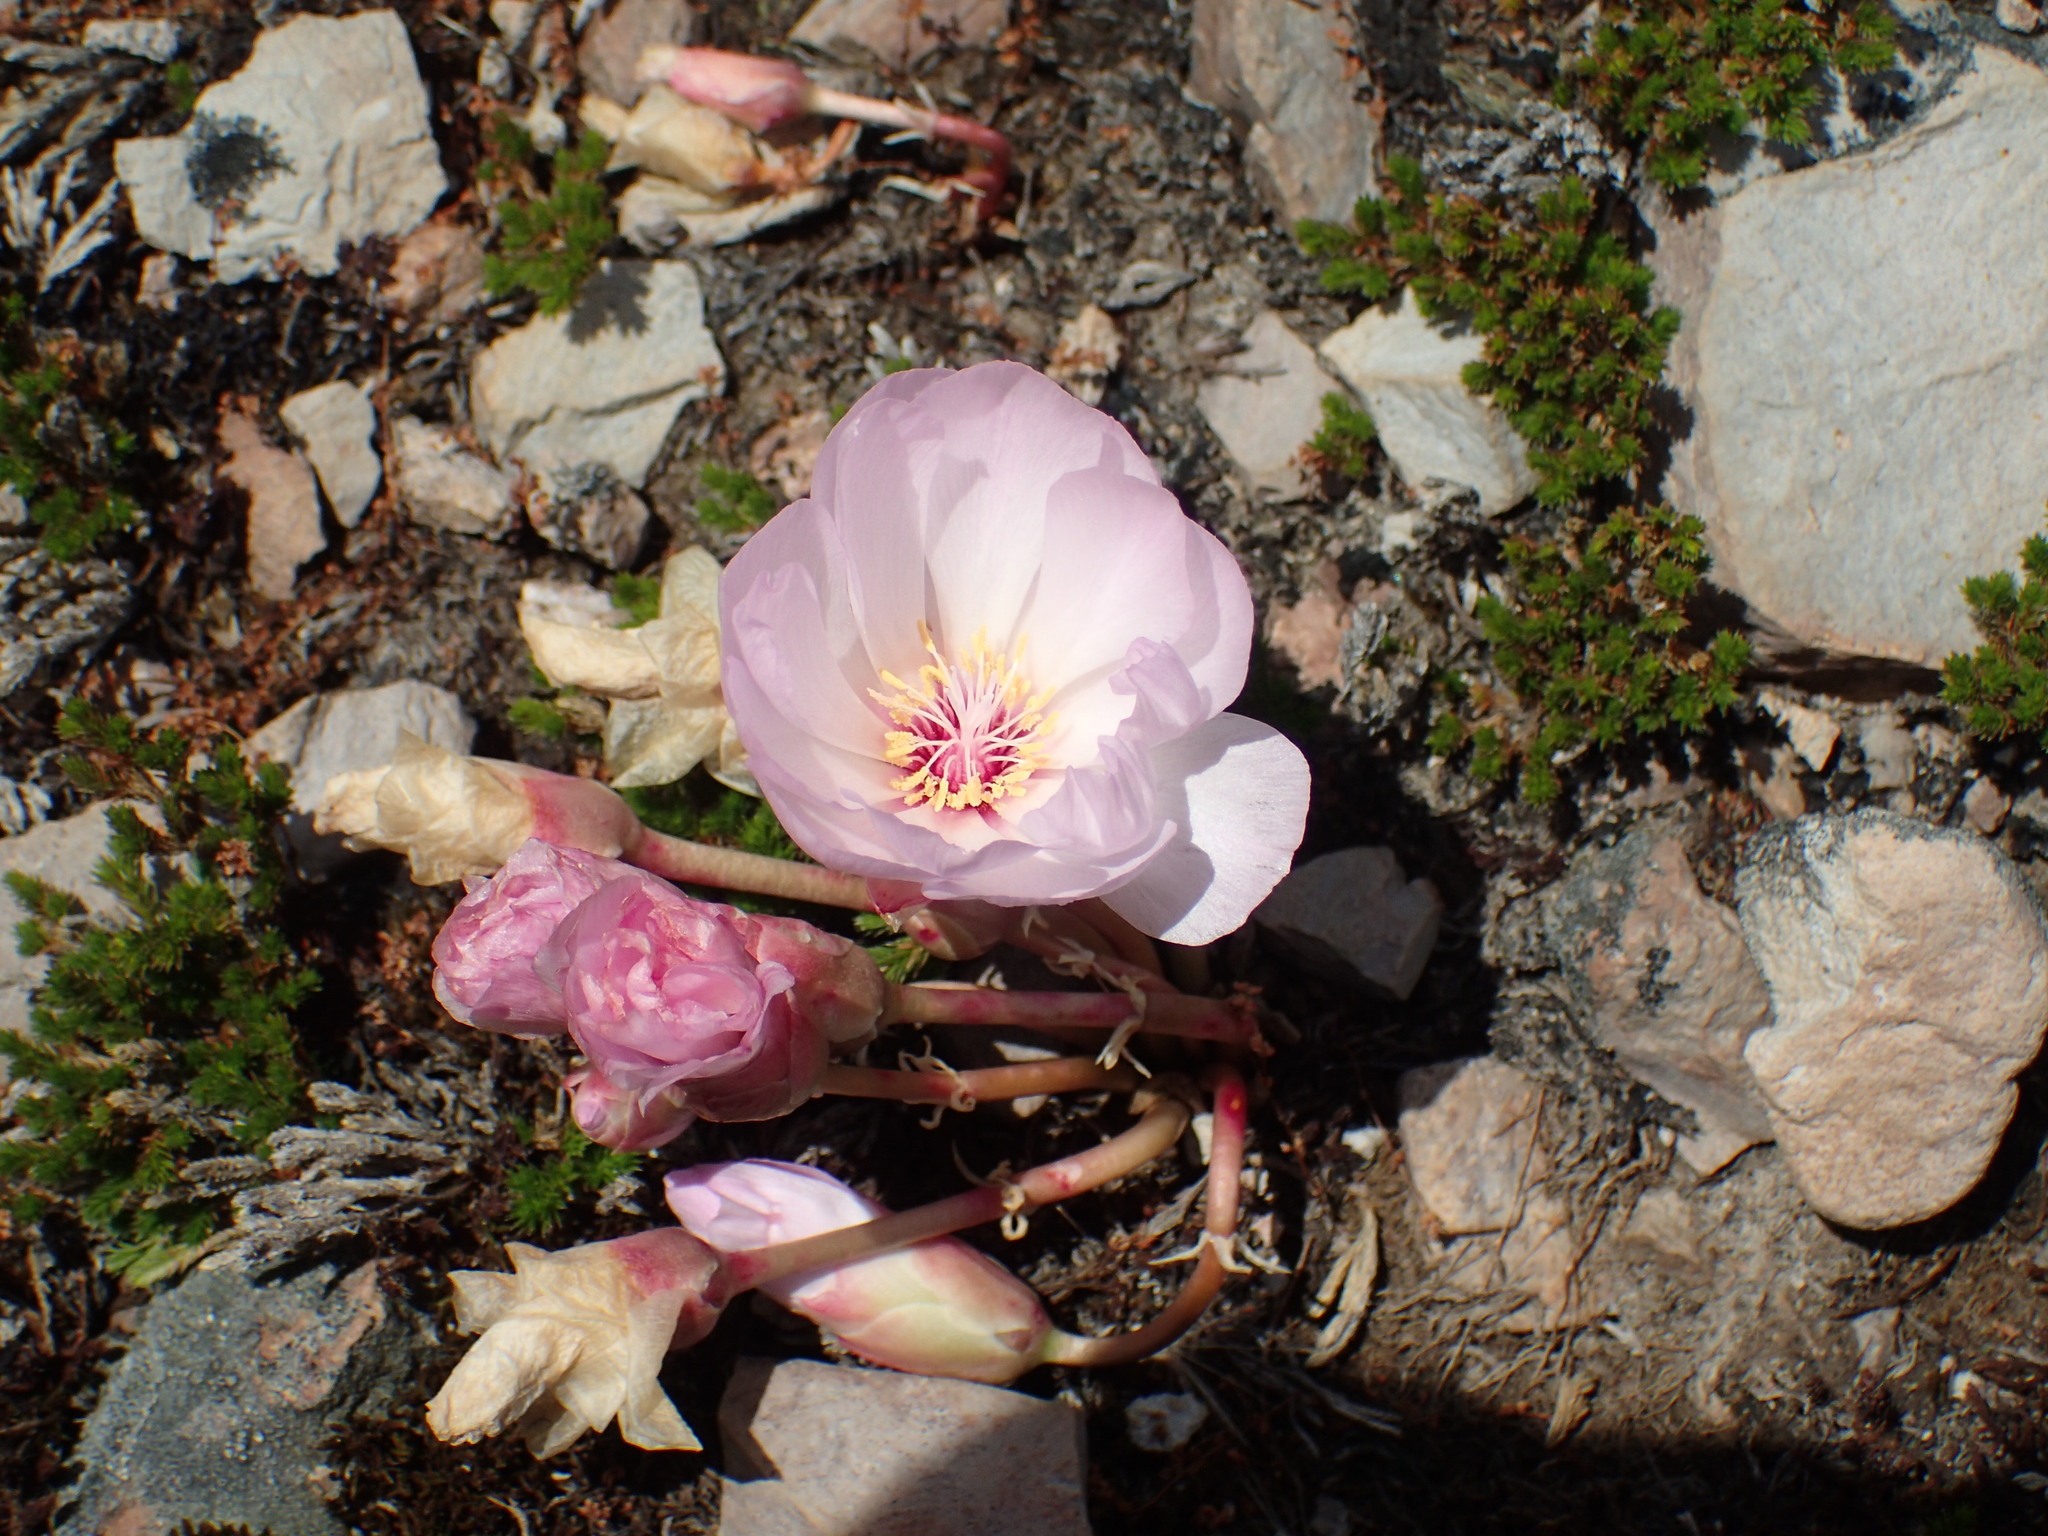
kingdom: Plantae
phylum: Tracheophyta
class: Magnoliopsida
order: Caryophyllales
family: Montiaceae
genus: Lewisia
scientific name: Lewisia rediviva
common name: Bitter-root
